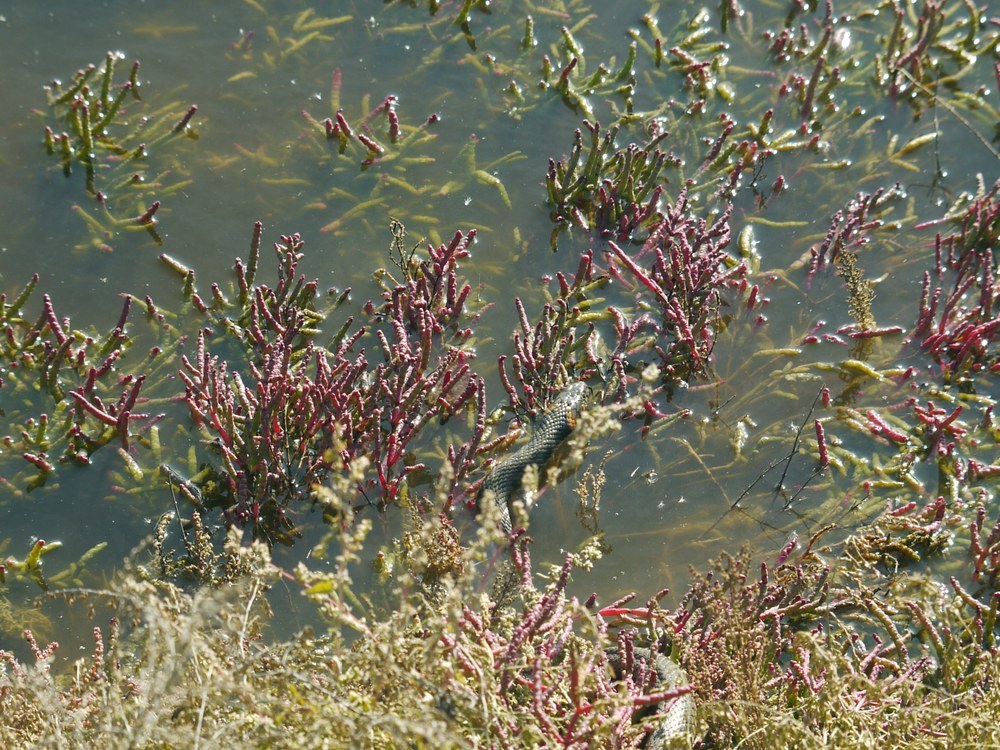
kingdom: Animalia
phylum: Chordata
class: Squamata
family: Colubridae
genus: Natrix
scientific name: Natrix natrix
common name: Grass snake
